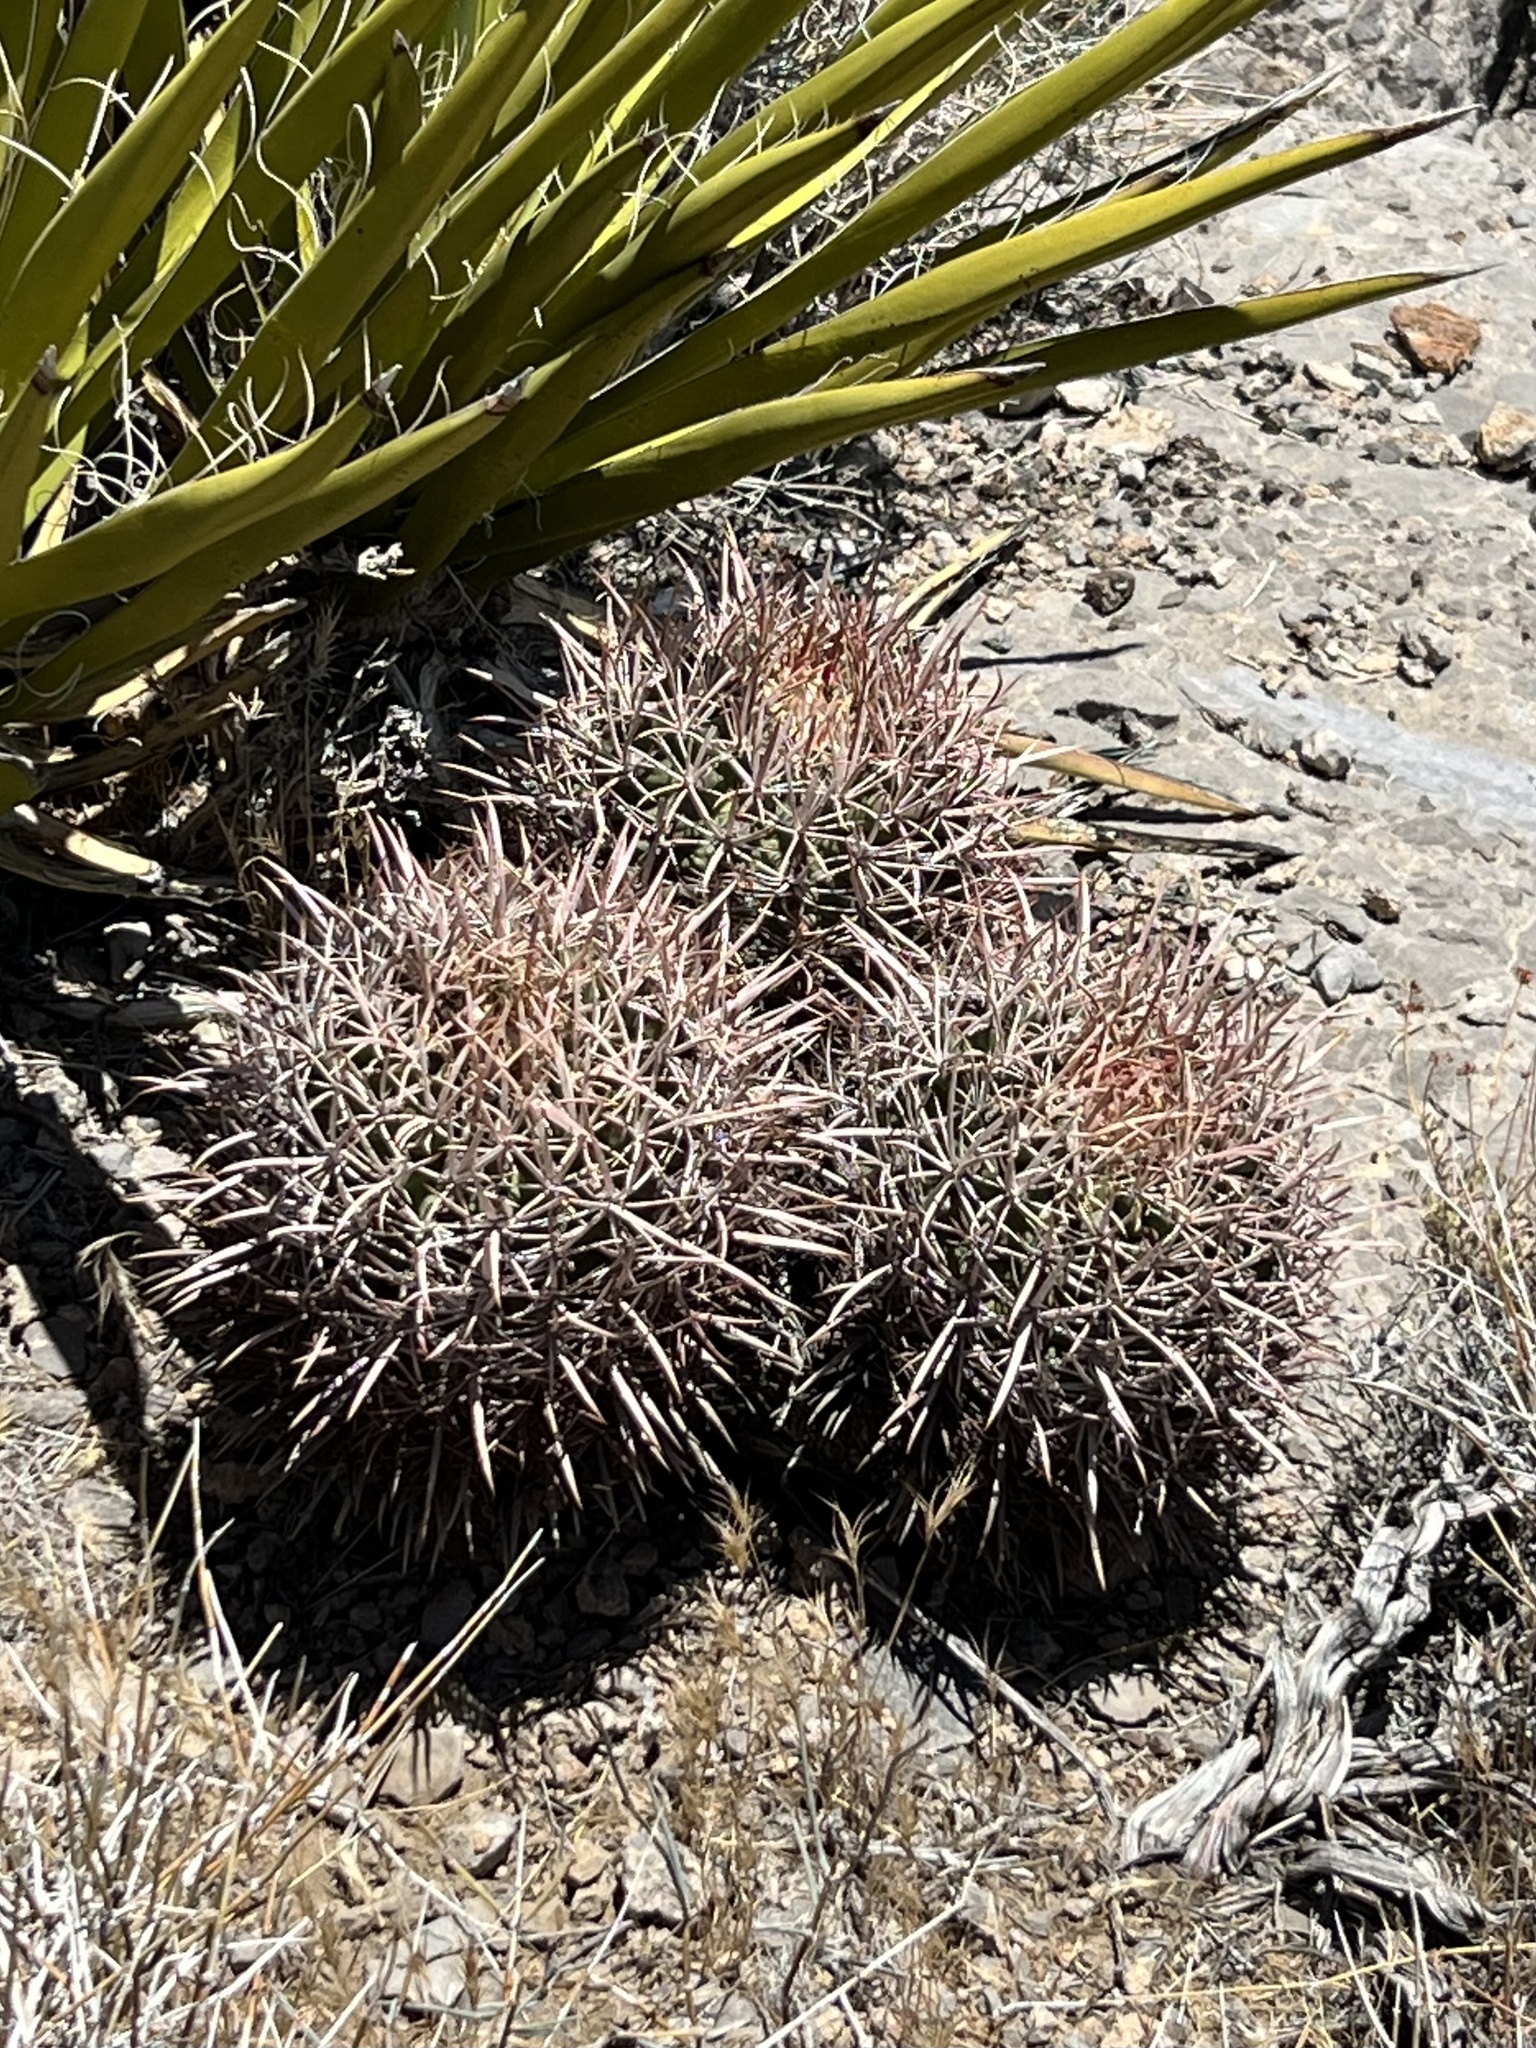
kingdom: Plantae
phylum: Tracheophyta
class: Magnoliopsida
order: Caryophyllales
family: Cactaceae
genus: Echinocactus
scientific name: Echinocactus polycephalus
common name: Cottontop cactus
